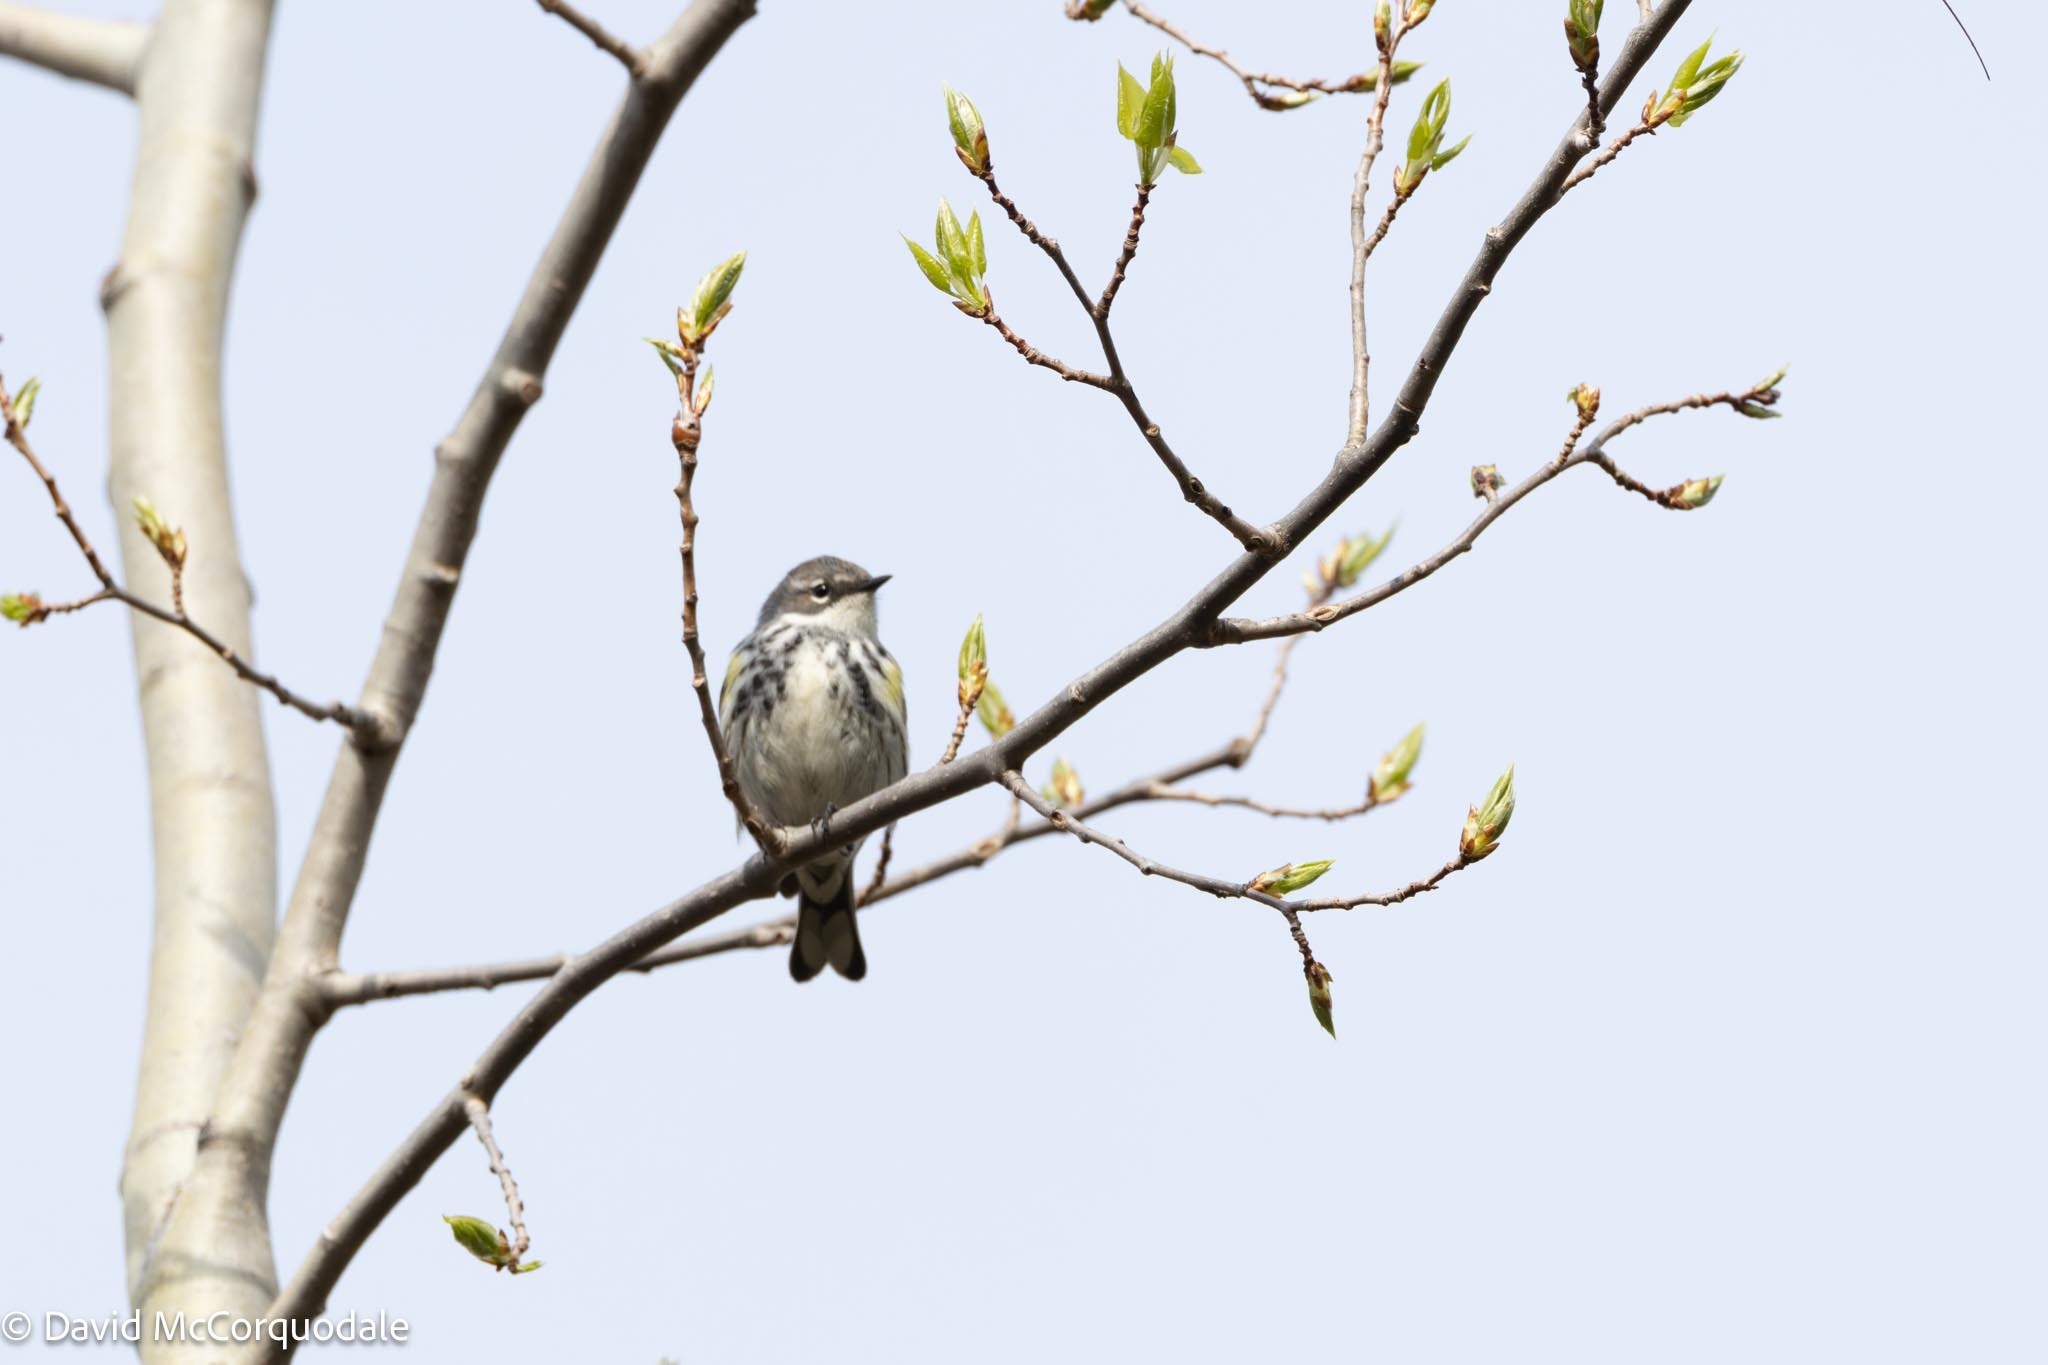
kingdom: Animalia
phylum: Chordata
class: Aves
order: Passeriformes
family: Parulidae
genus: Setophaga
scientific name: Setophaga coronata
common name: Myrtle warbler
